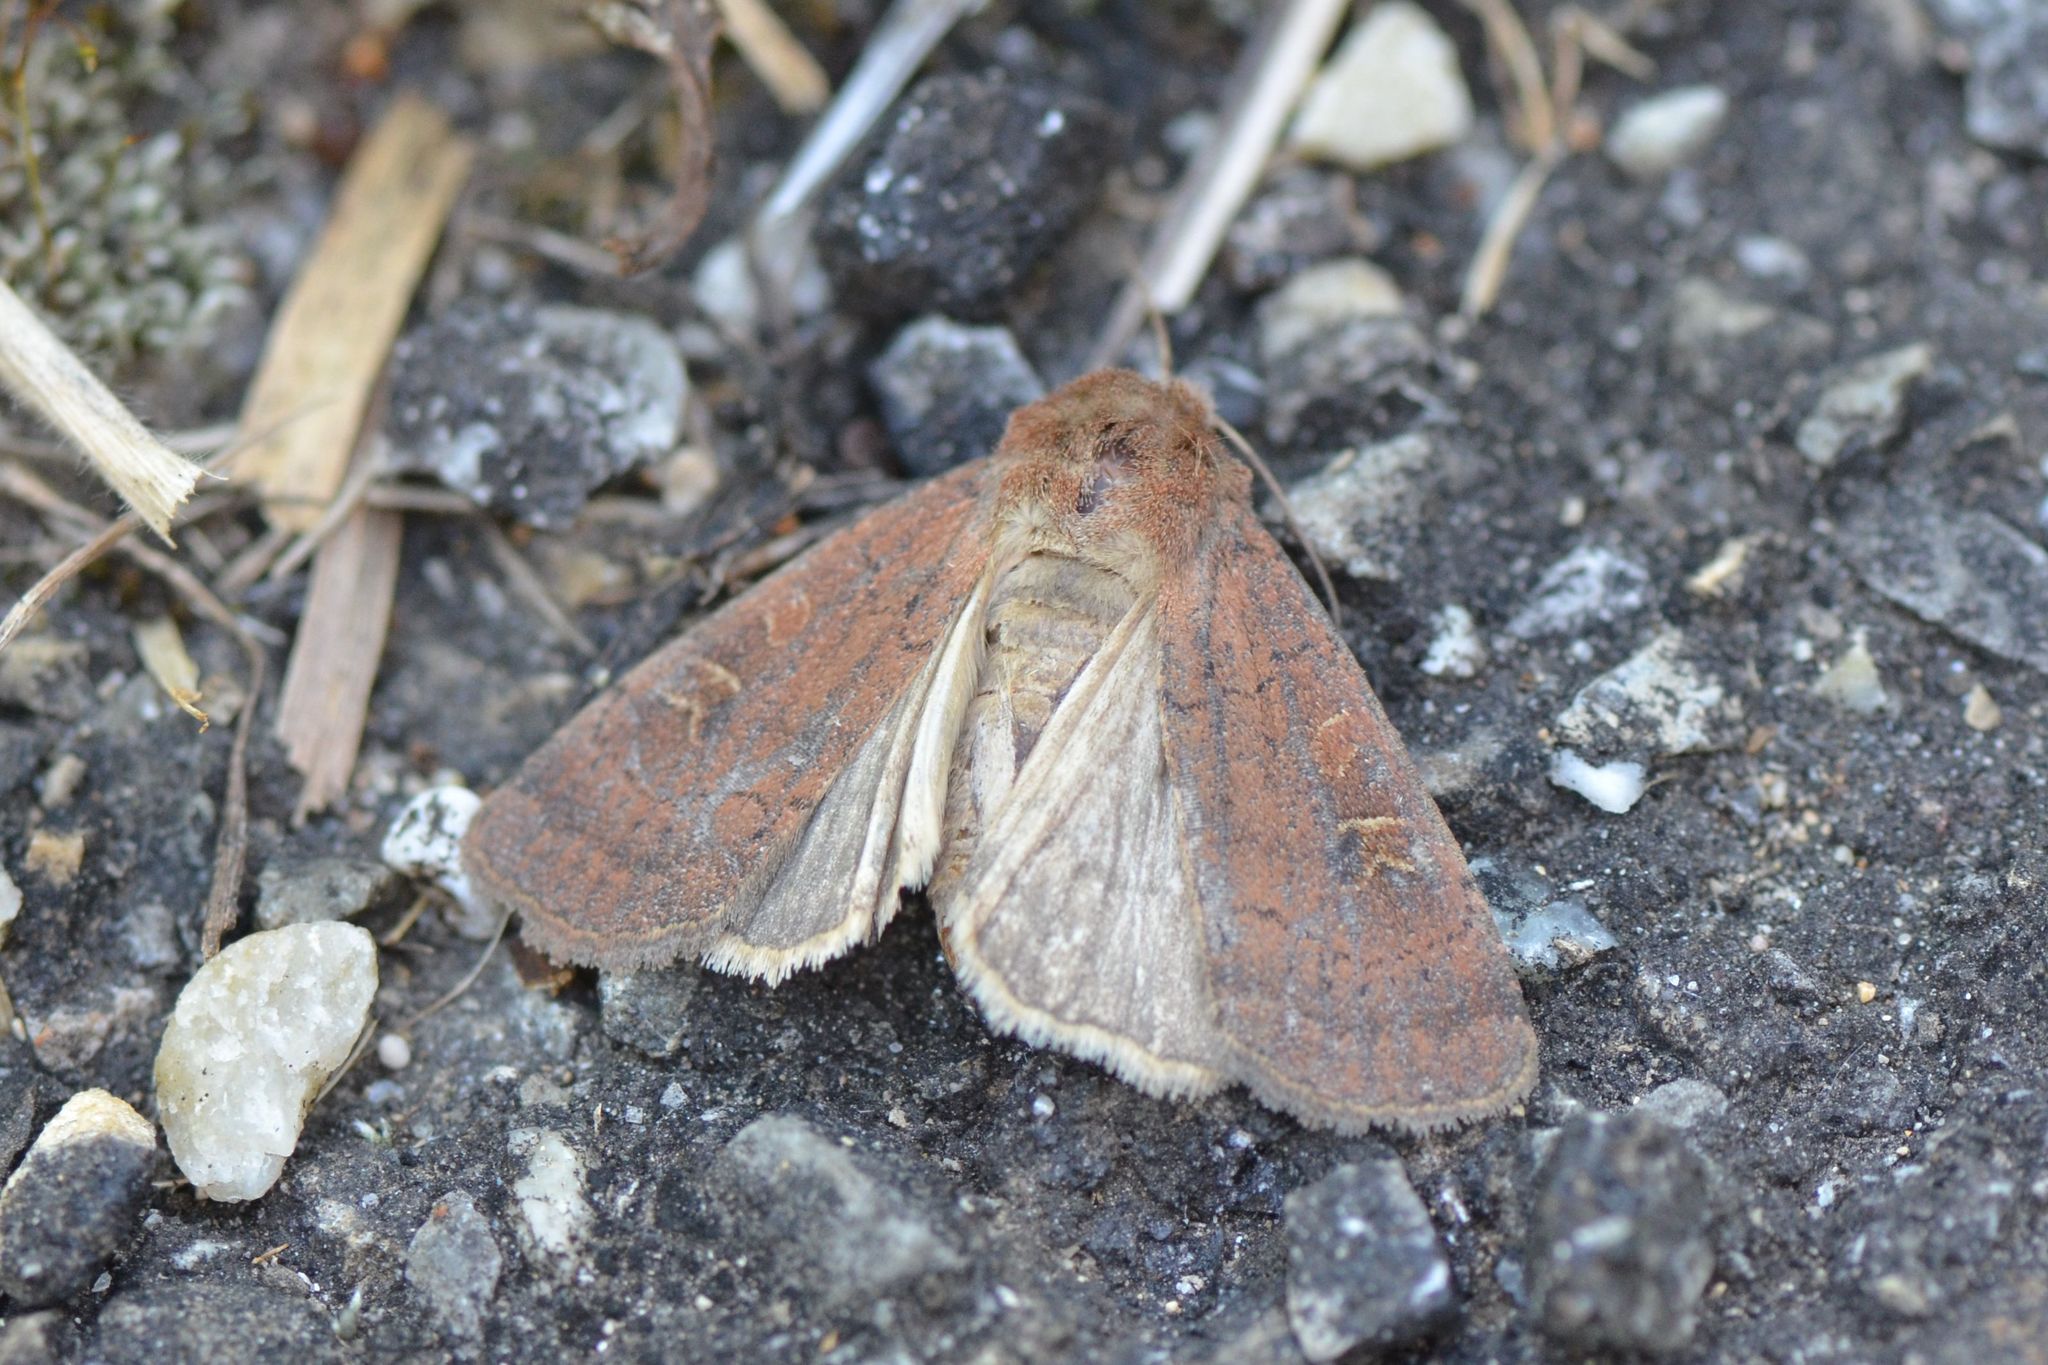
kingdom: Animalia
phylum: Arthropoda
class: Insecta
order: Lepidoptera
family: Noctuidae
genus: Xestia
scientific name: Xestia xanthographa
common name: Square-spot rustic
